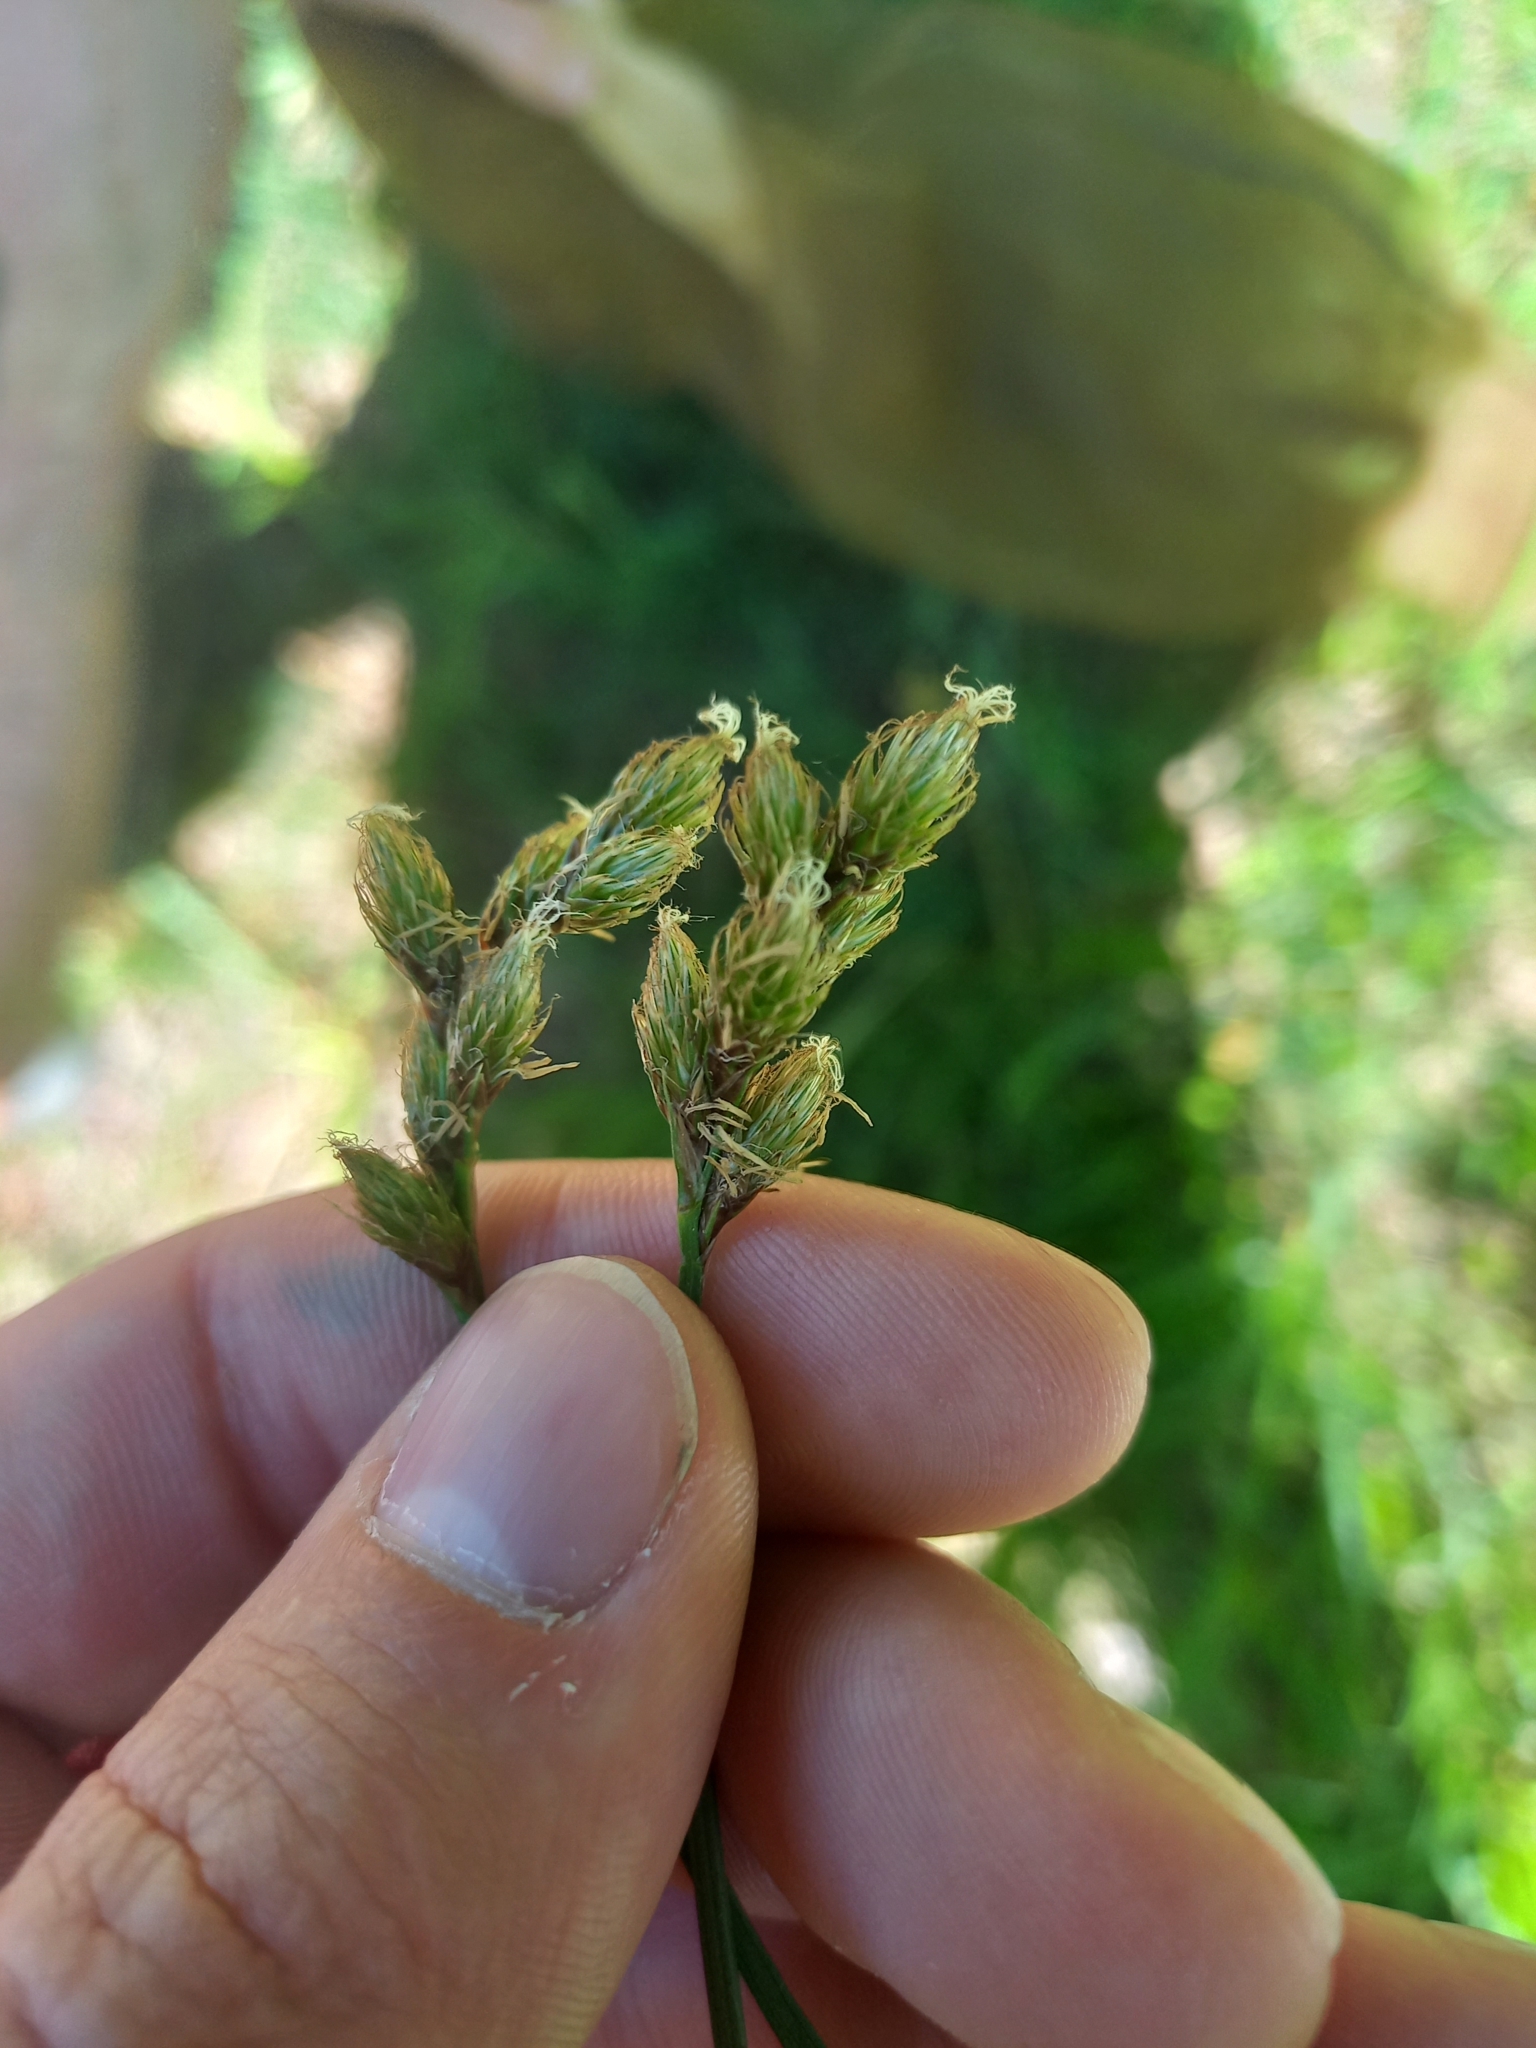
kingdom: Plantae
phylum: Tracheophyta
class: Liliopsida
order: Poales
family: Cyperaceae
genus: Carex
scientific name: Carex leporina
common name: Oval sedge
